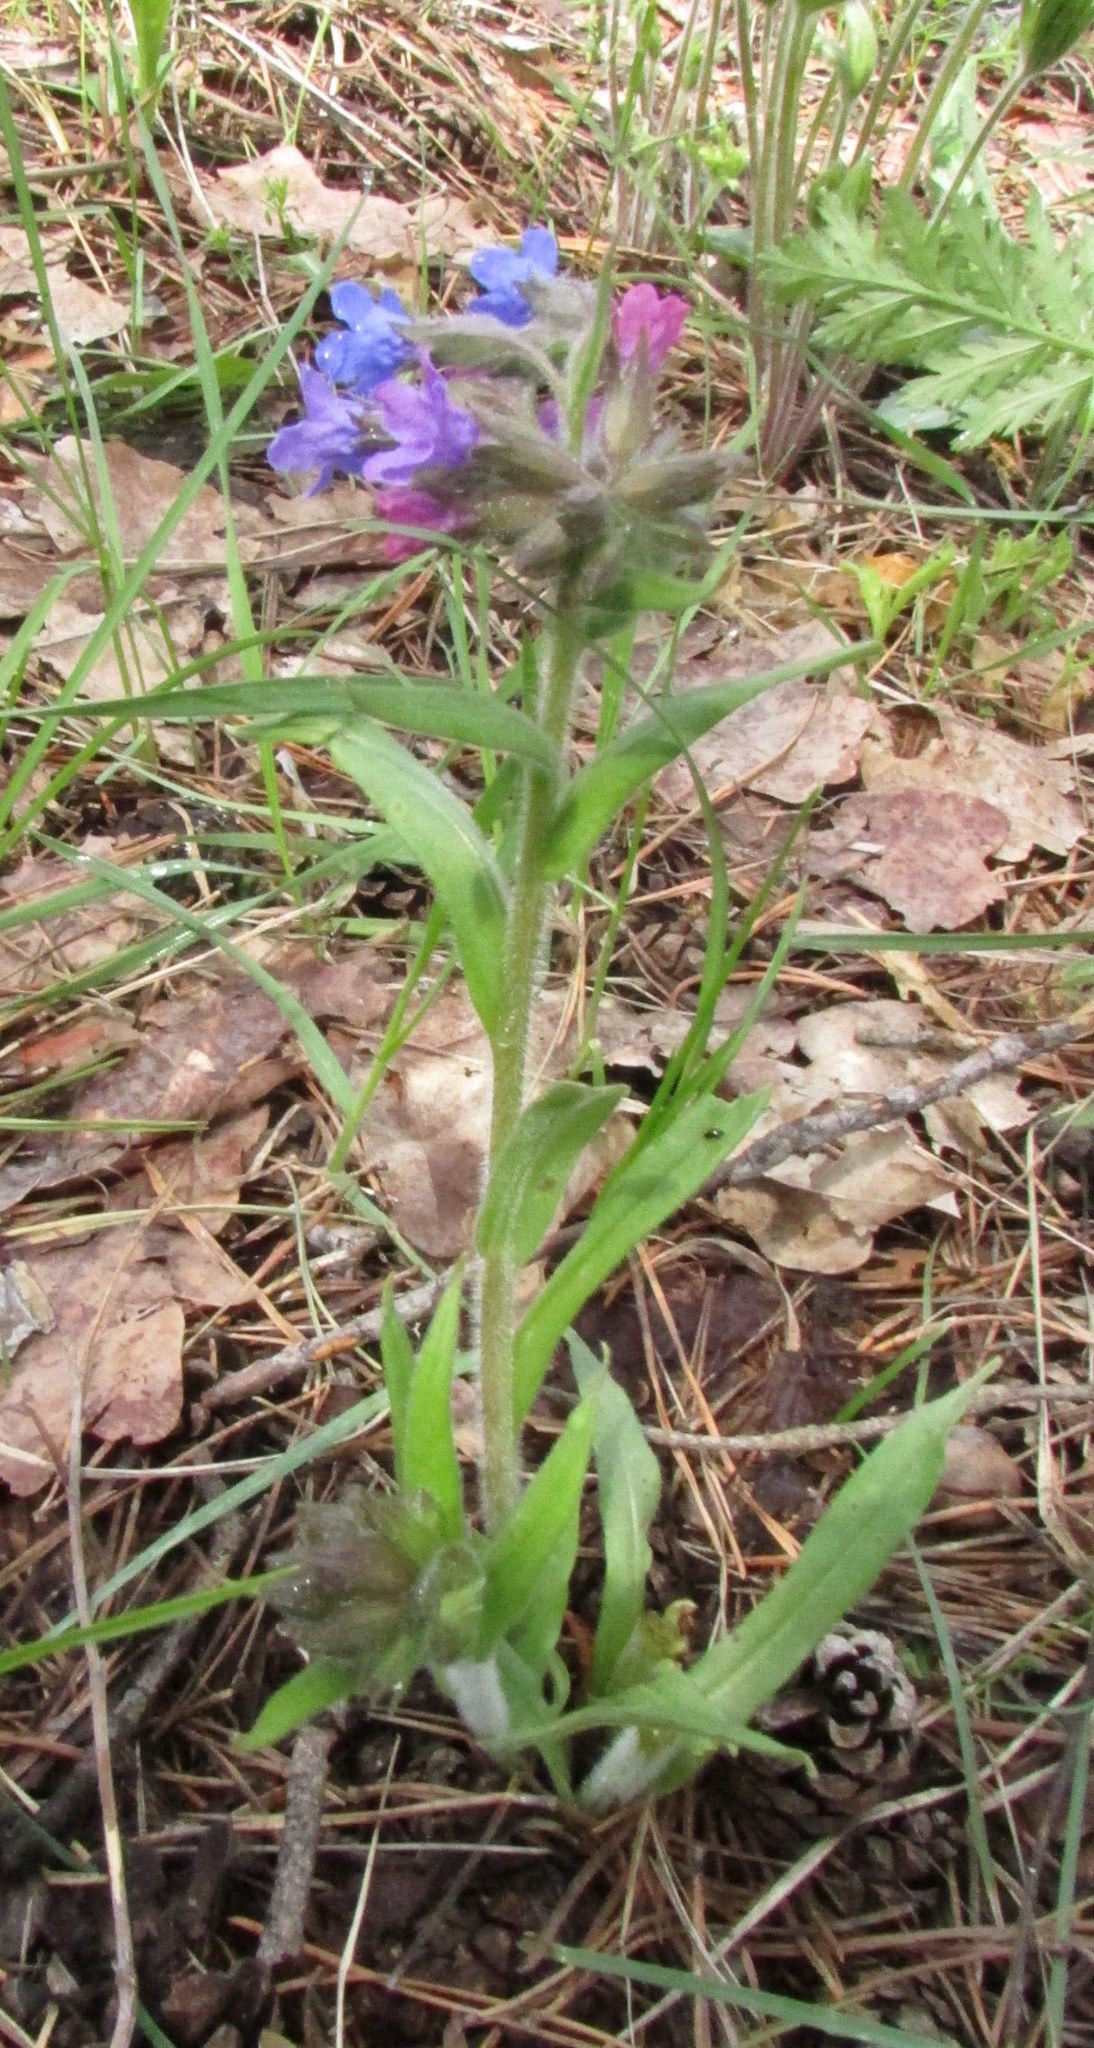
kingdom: Plantae
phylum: Tracheophyta
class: Magnoliopsida
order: Boraginales
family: Boraginaceae
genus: Pulmonaria
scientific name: Pulmonaria angustifolia
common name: Blue cowslip
